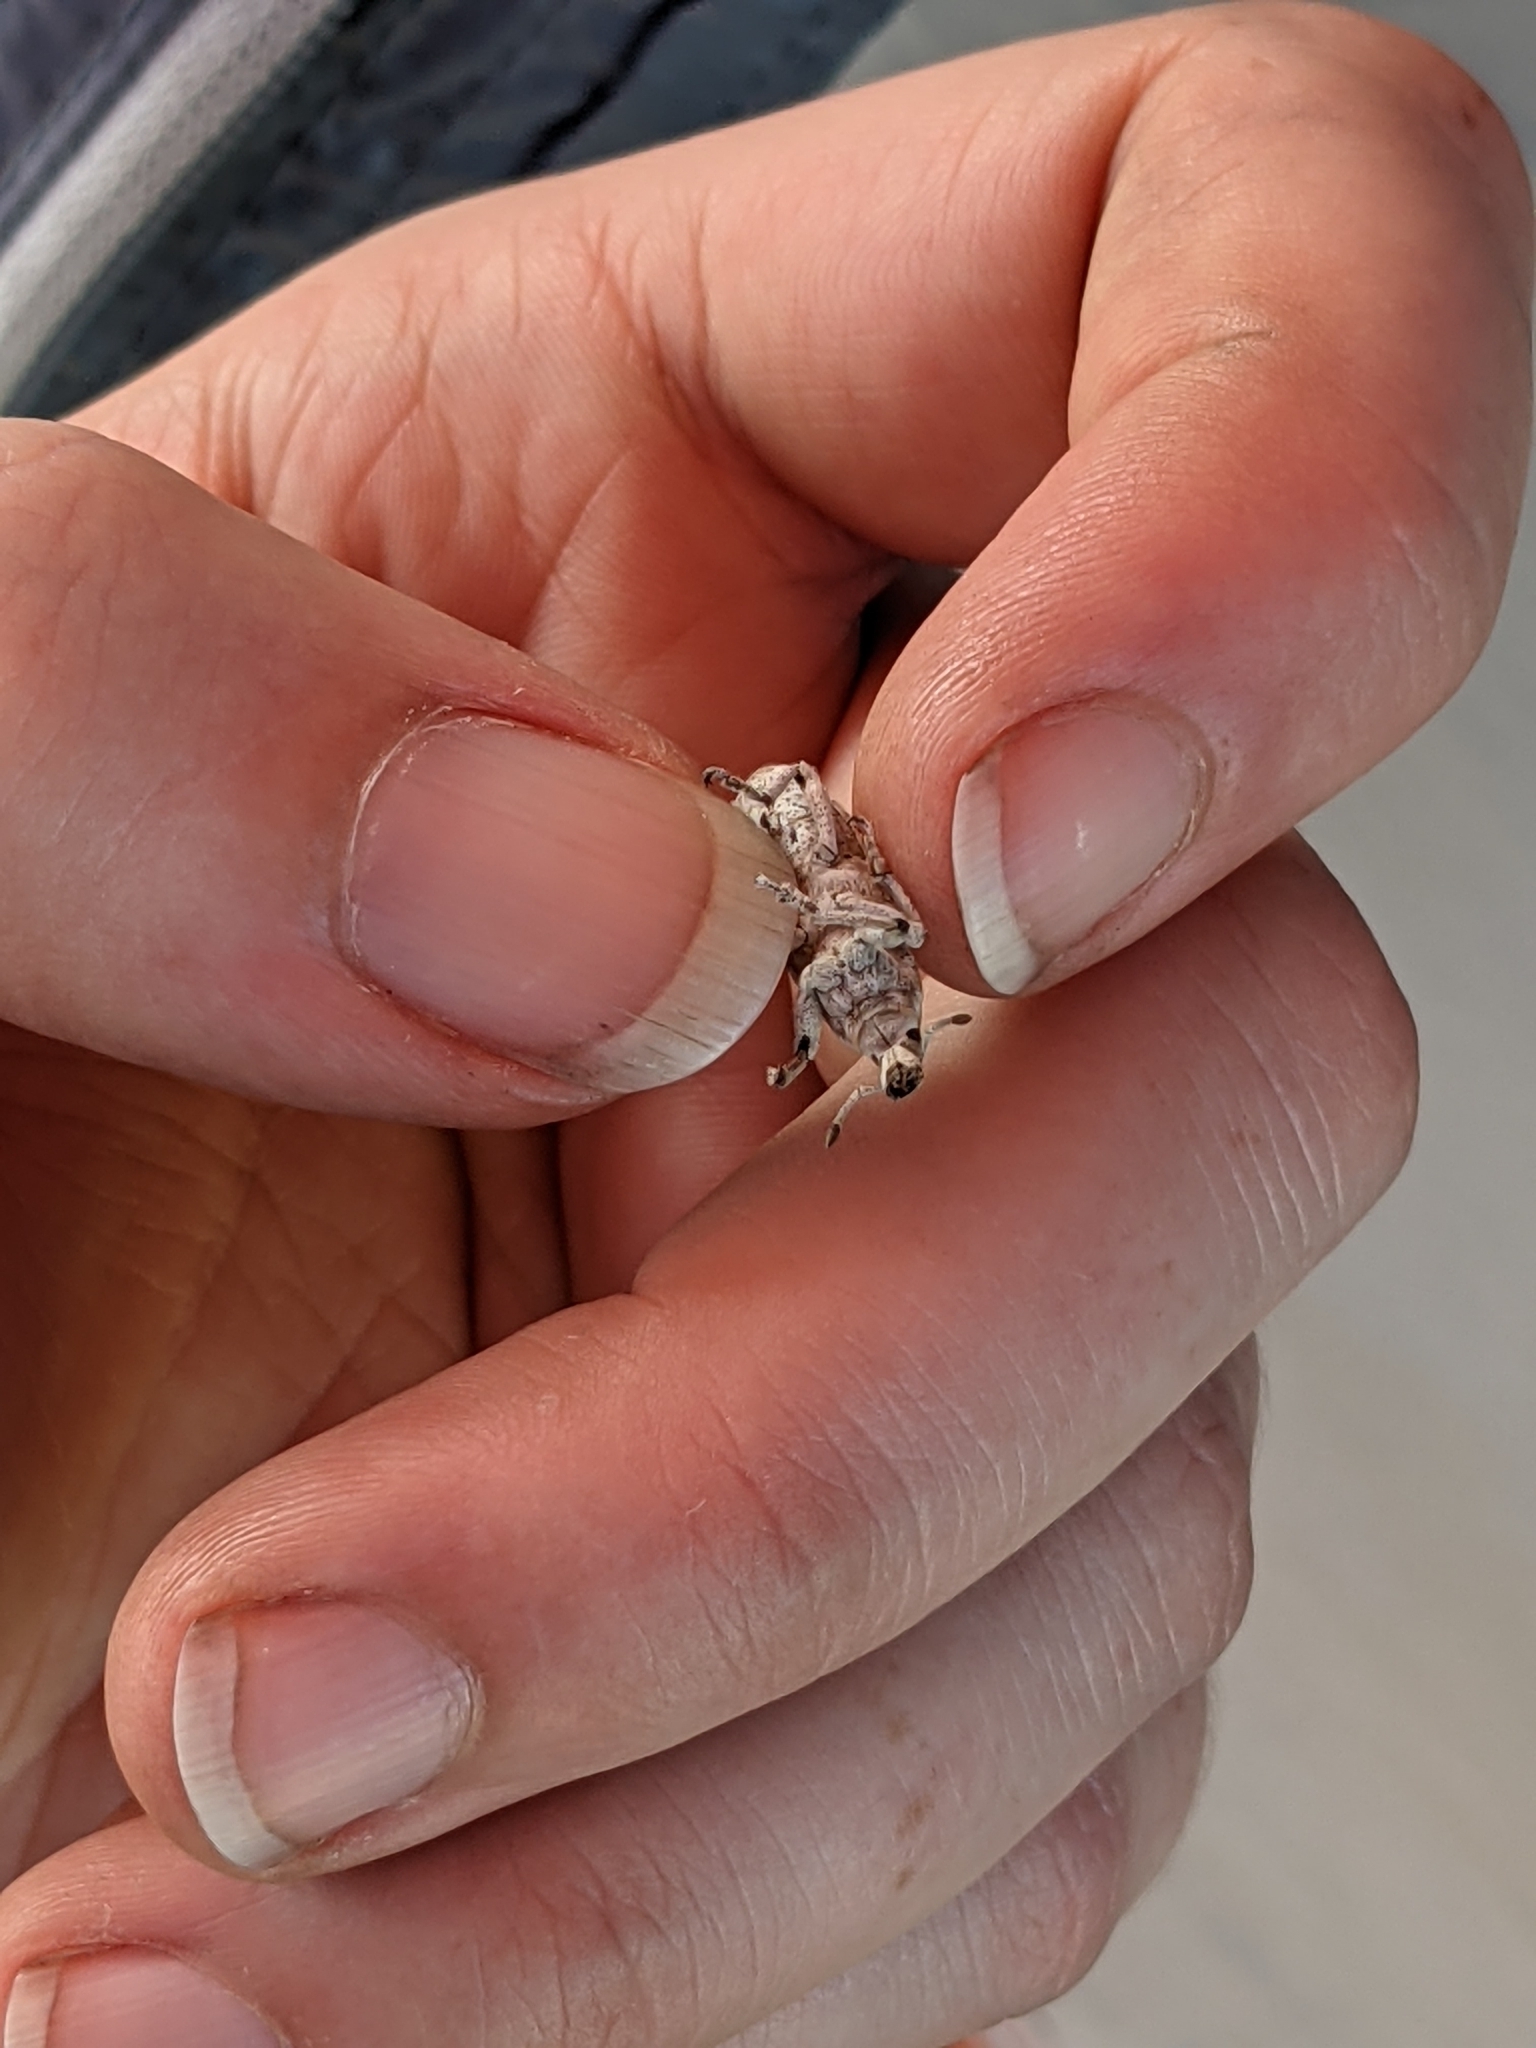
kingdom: Animalia
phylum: Arthropoda
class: Insecta
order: Coleoptera
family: Curculionidae
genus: Cleonus
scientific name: Cleonus achates
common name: Root weevil
